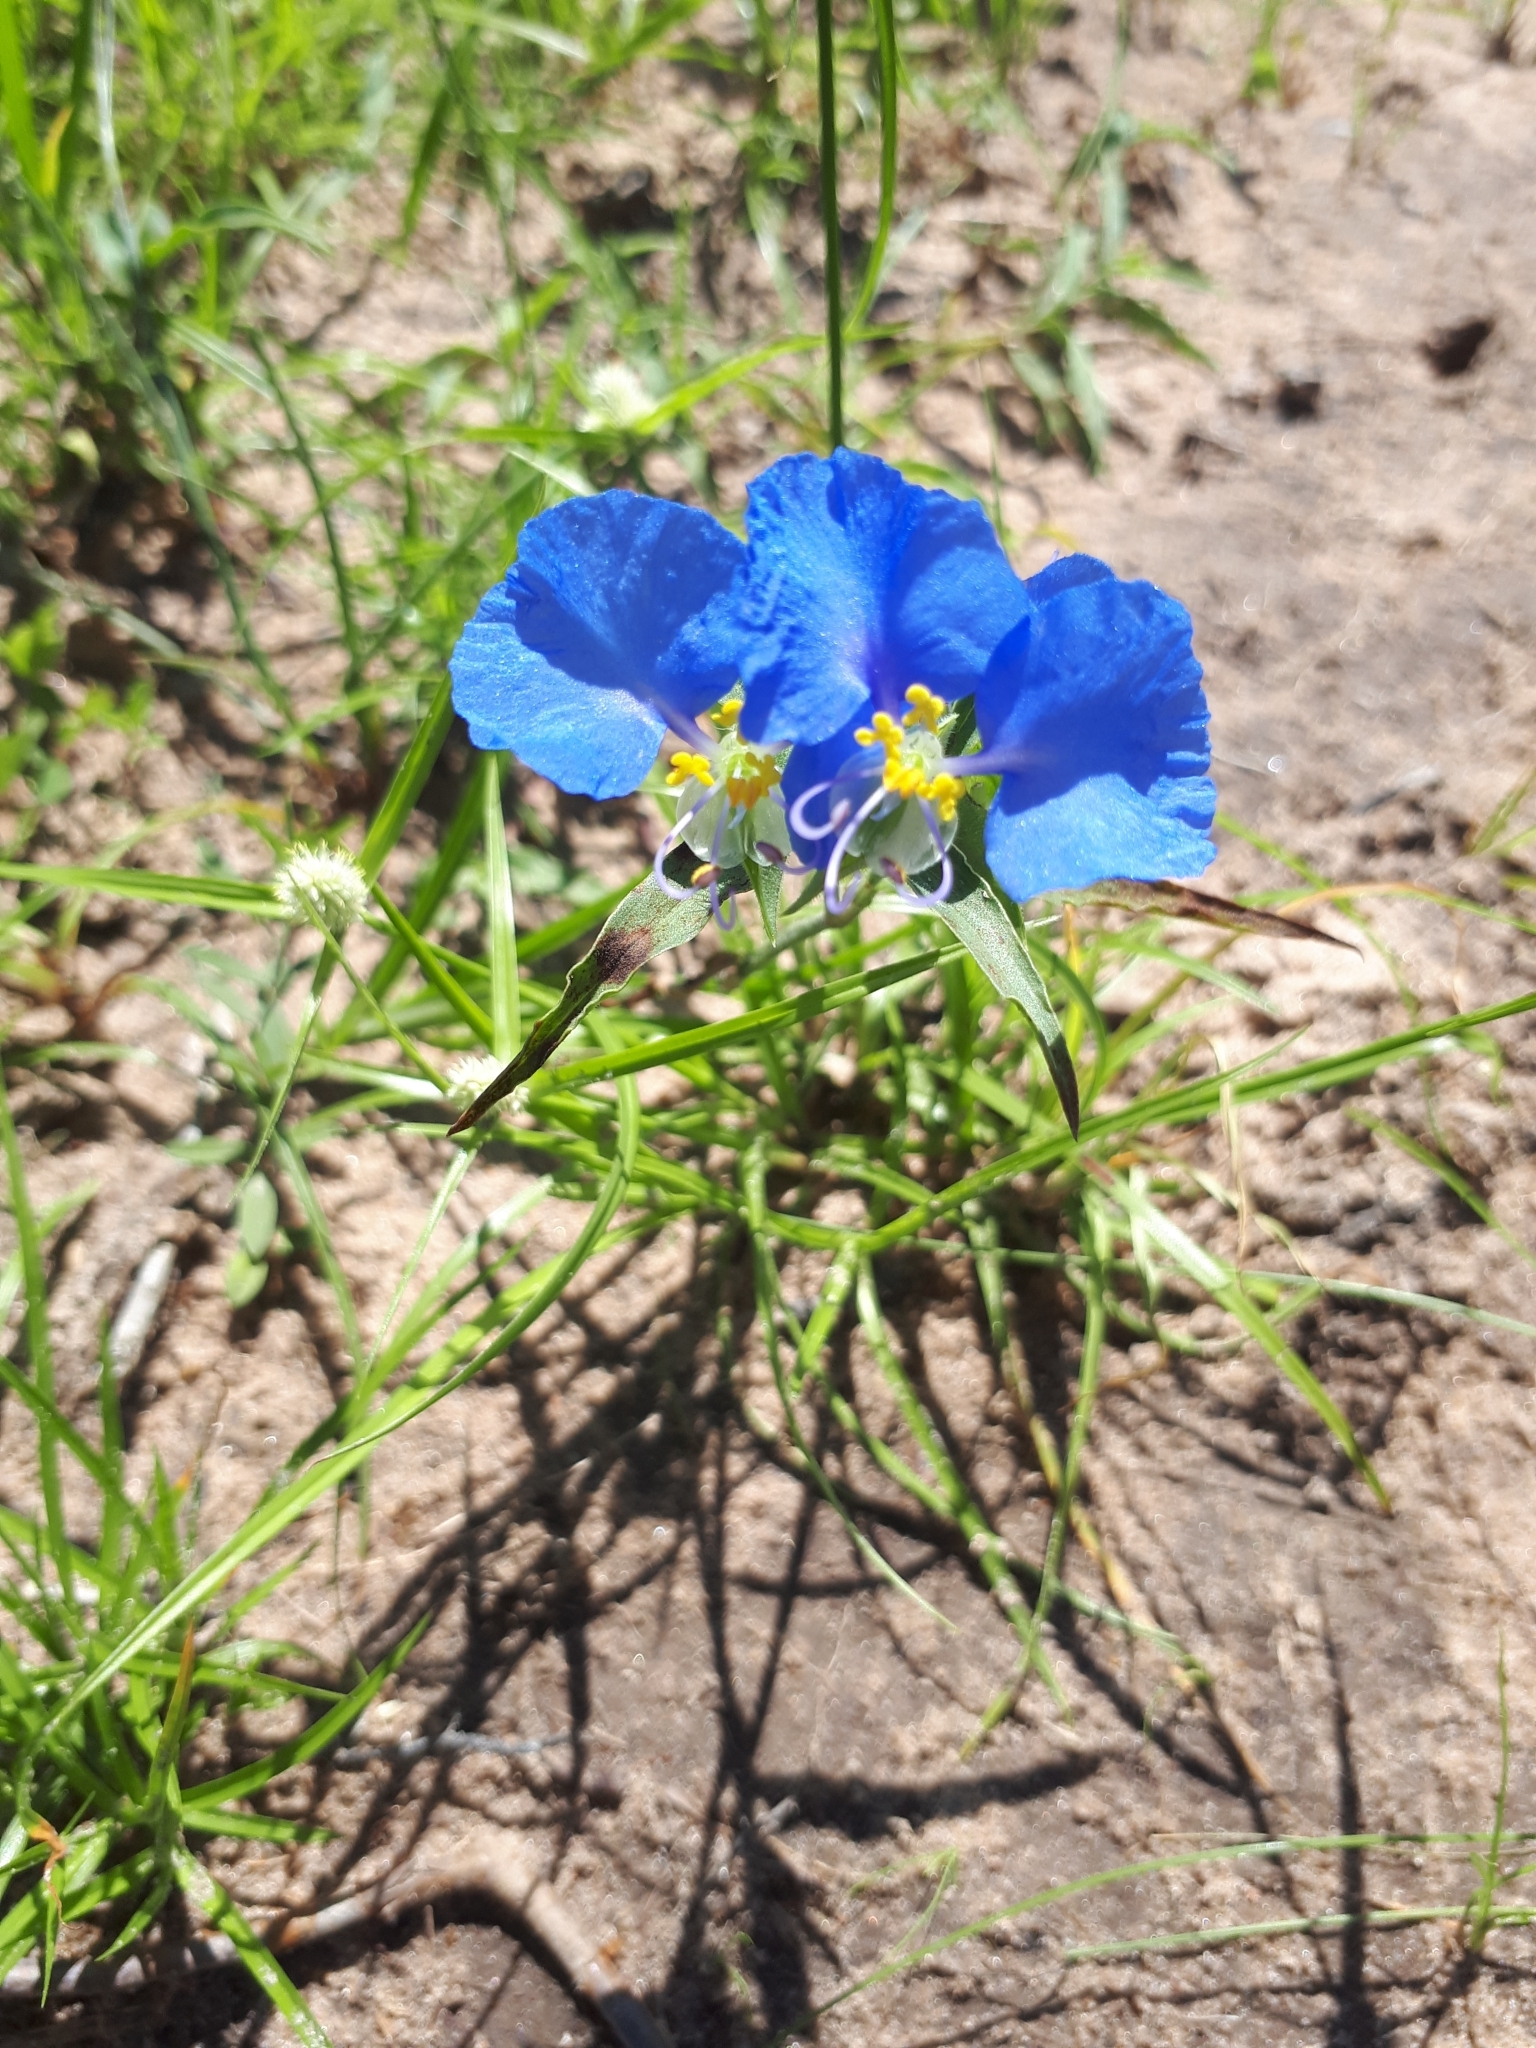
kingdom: Plantae
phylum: Tracheophyta
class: Liliopsida
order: Commelinales
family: Commelinaceae
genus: Commelina
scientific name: Commelina erecta
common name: Blousel blommetjie
